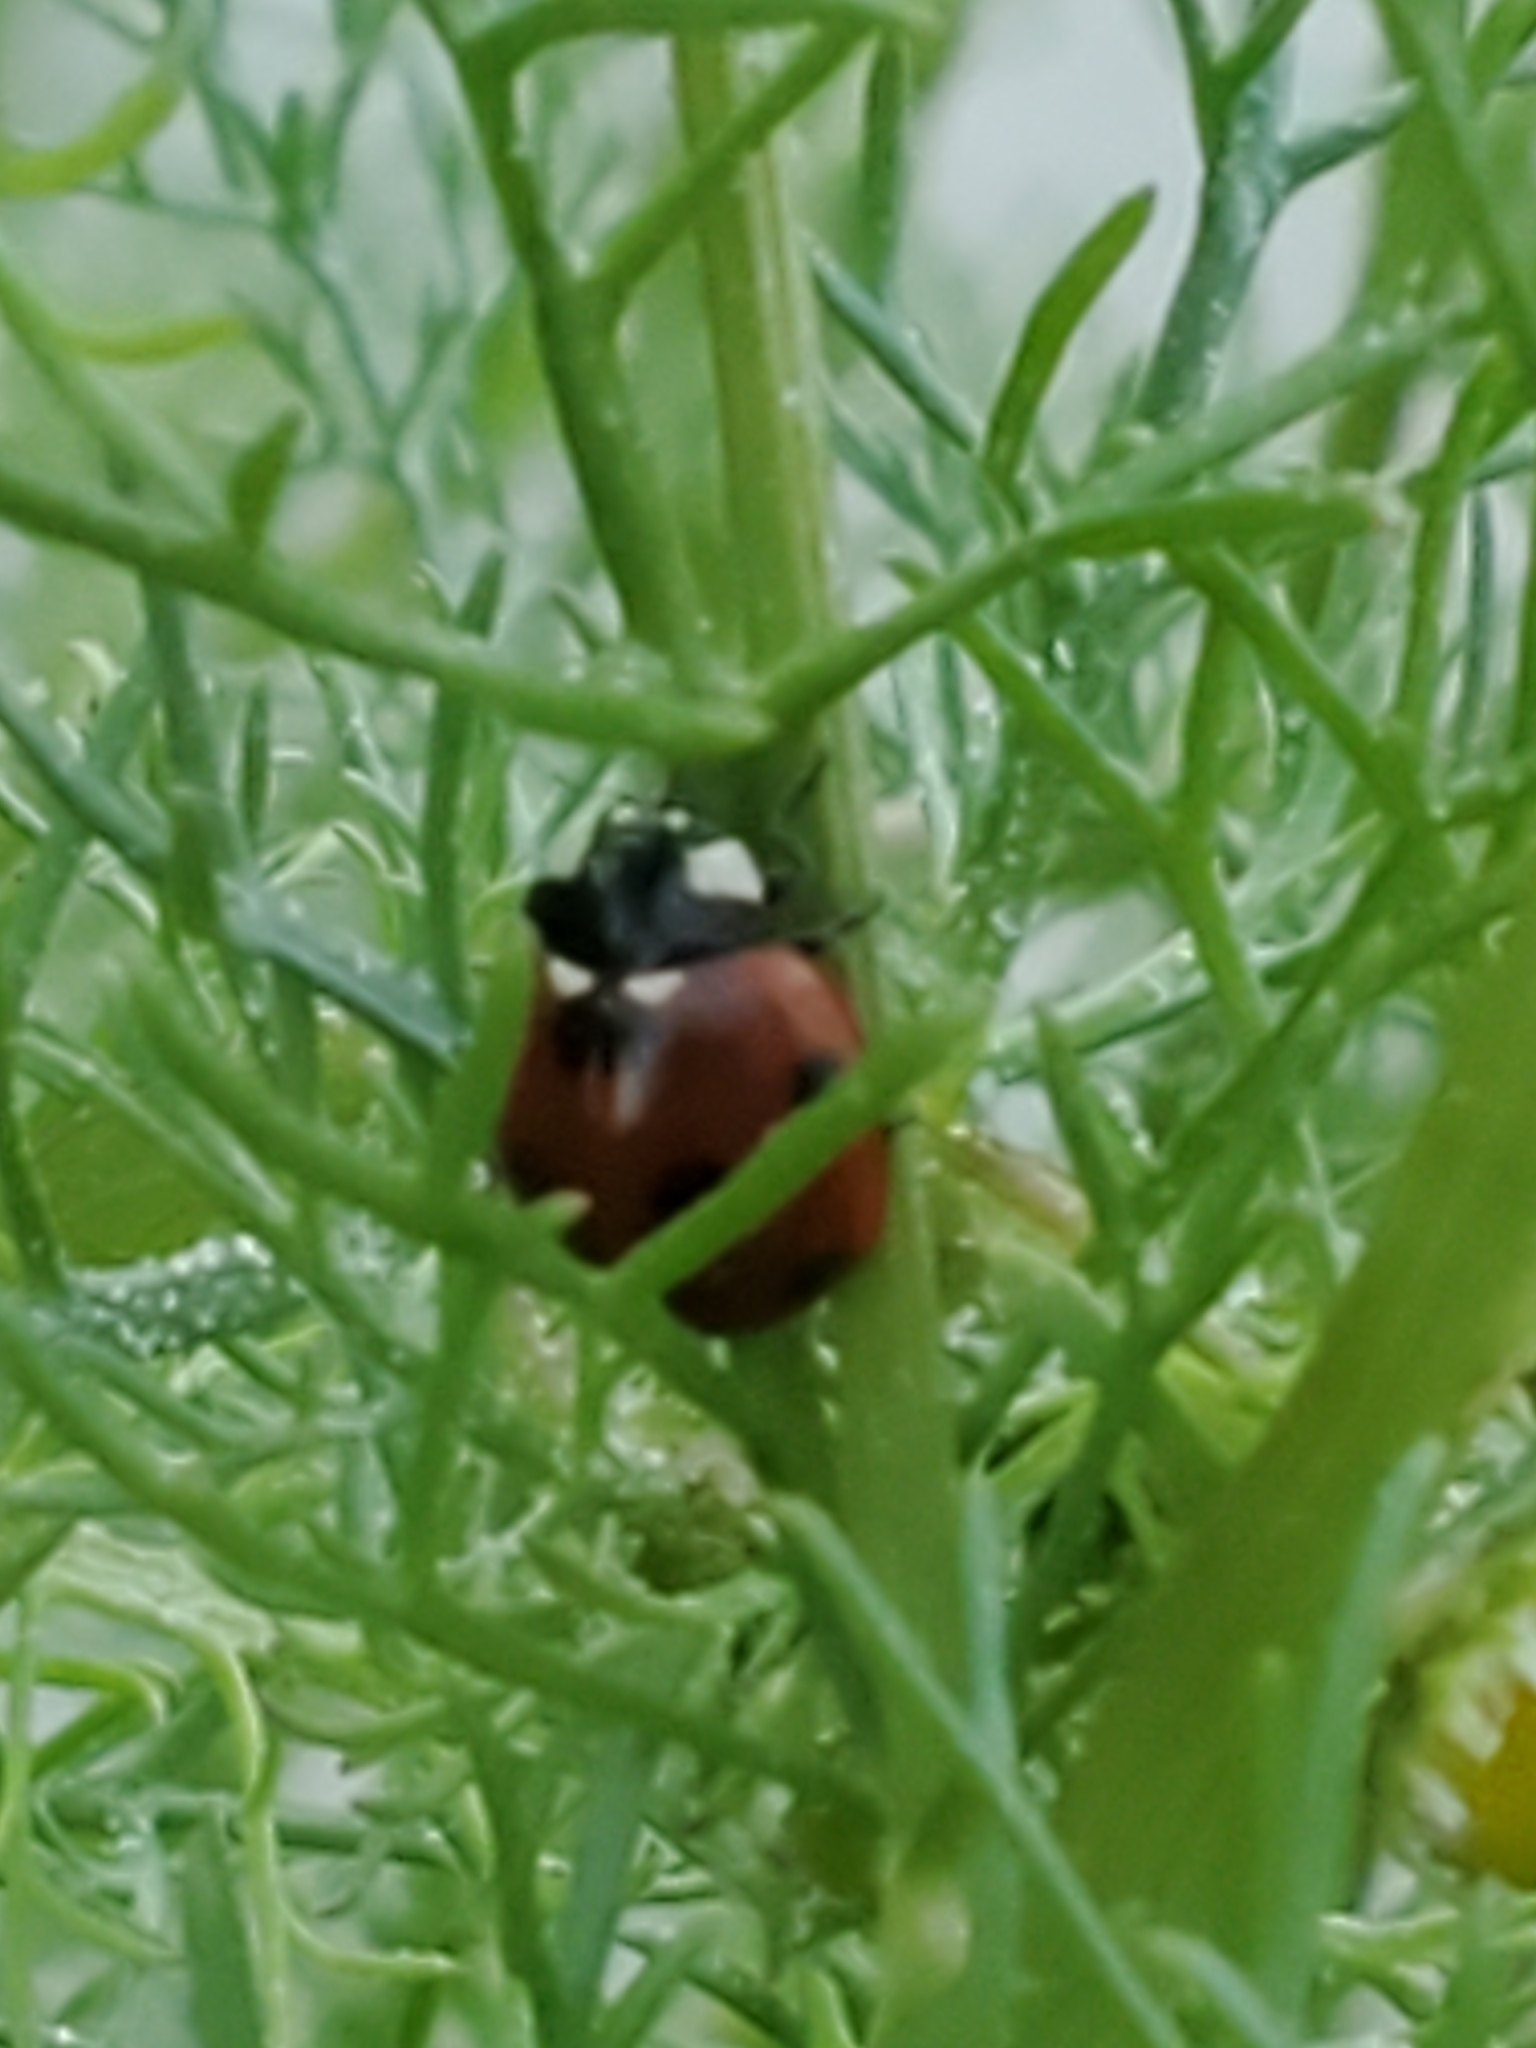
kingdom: Animalia
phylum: Arthropoda
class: Insecta
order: Coleoptera
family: Coccinellidae
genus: Coccinella
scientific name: Coccinella septempunctata
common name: Sevenspotted lady beetle
